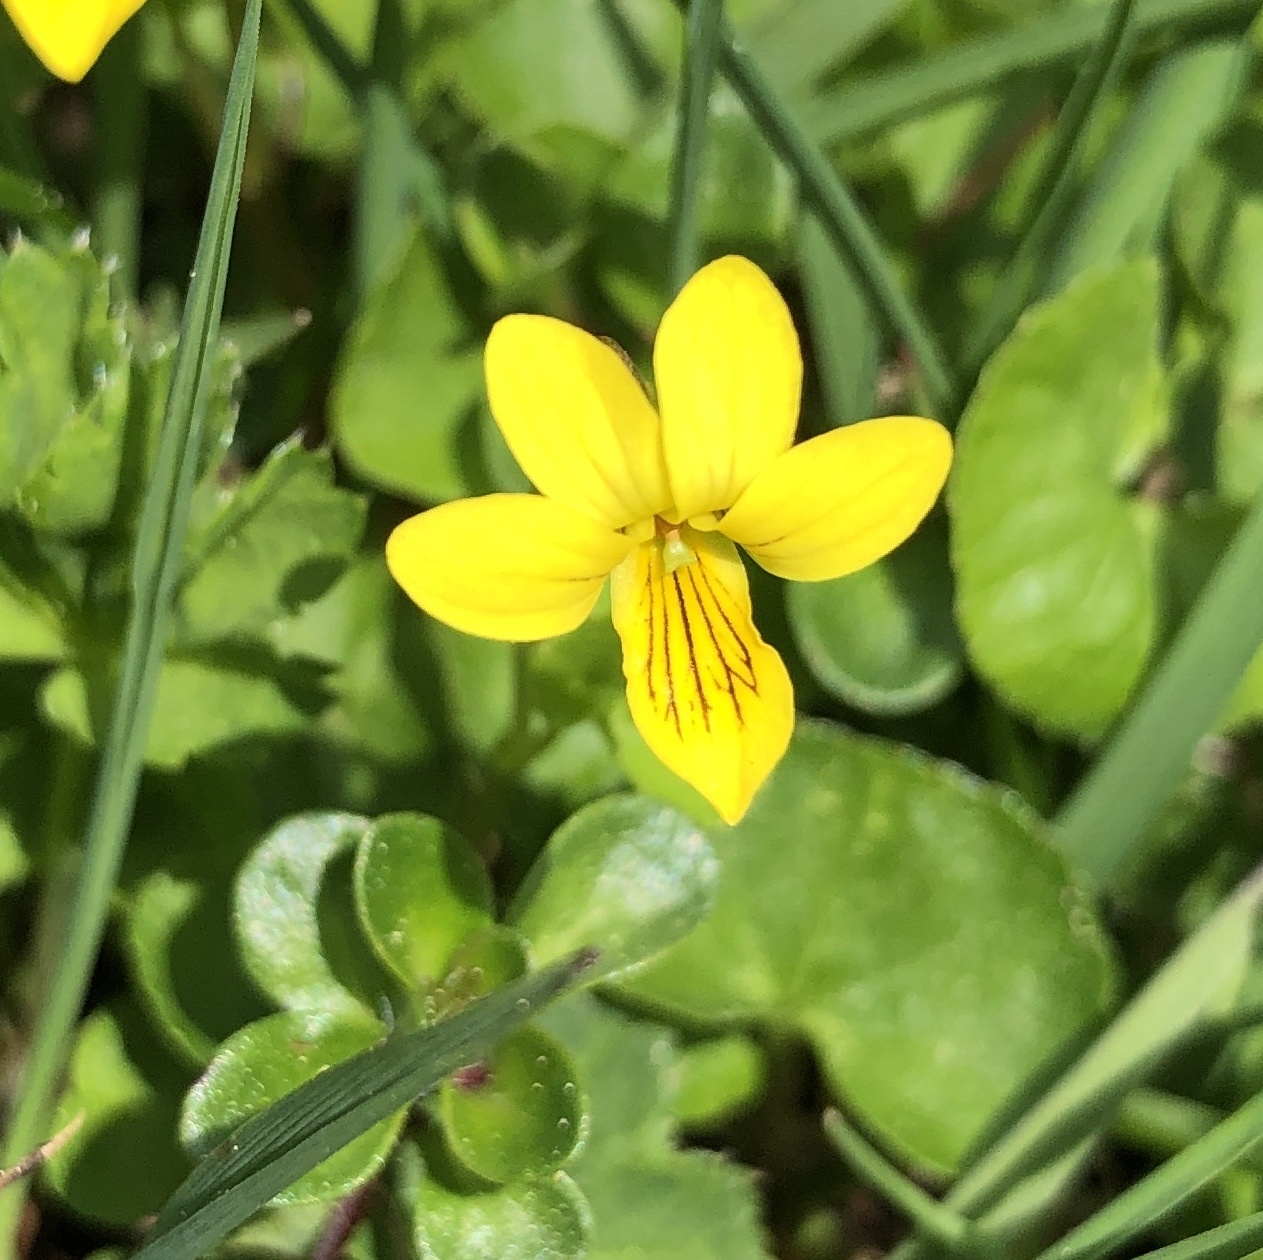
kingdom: Plantae
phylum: Tracheophyta
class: Magnoliopsida
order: Malpighiales
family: Violaceae
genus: Viola
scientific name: Viola biflora
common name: Alpine yellow violet
